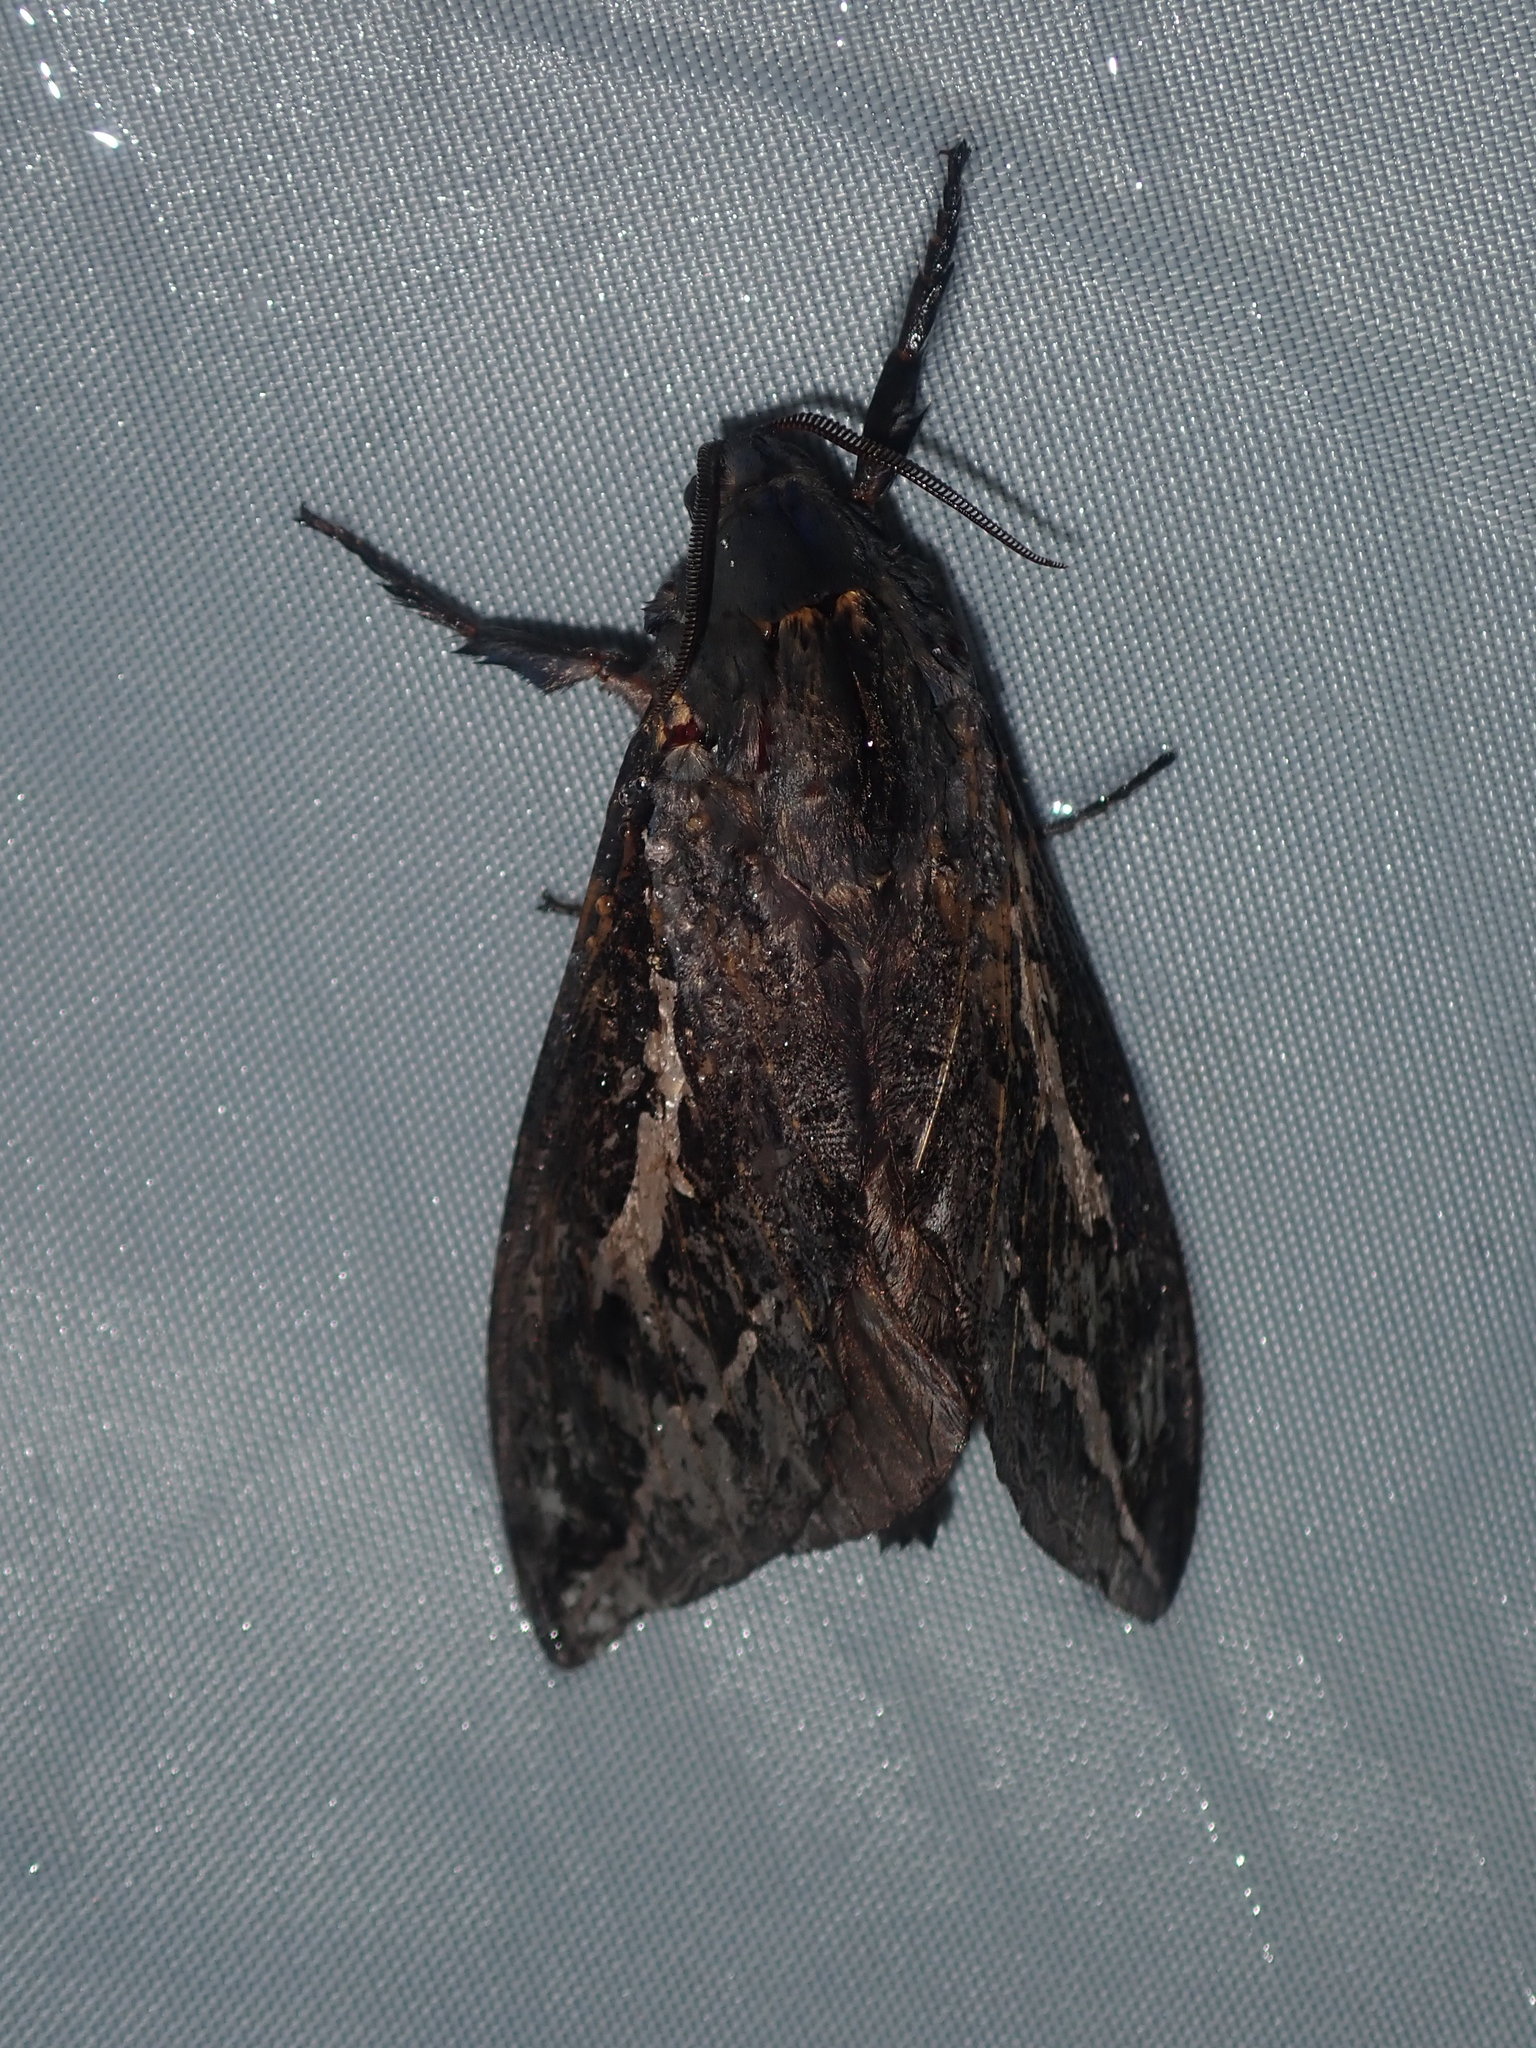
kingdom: Animalia
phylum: Arthropoda
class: Insecta
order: Lepidoptera
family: Hepialidae
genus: Abantiades
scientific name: Abantiades labyrinthicus
